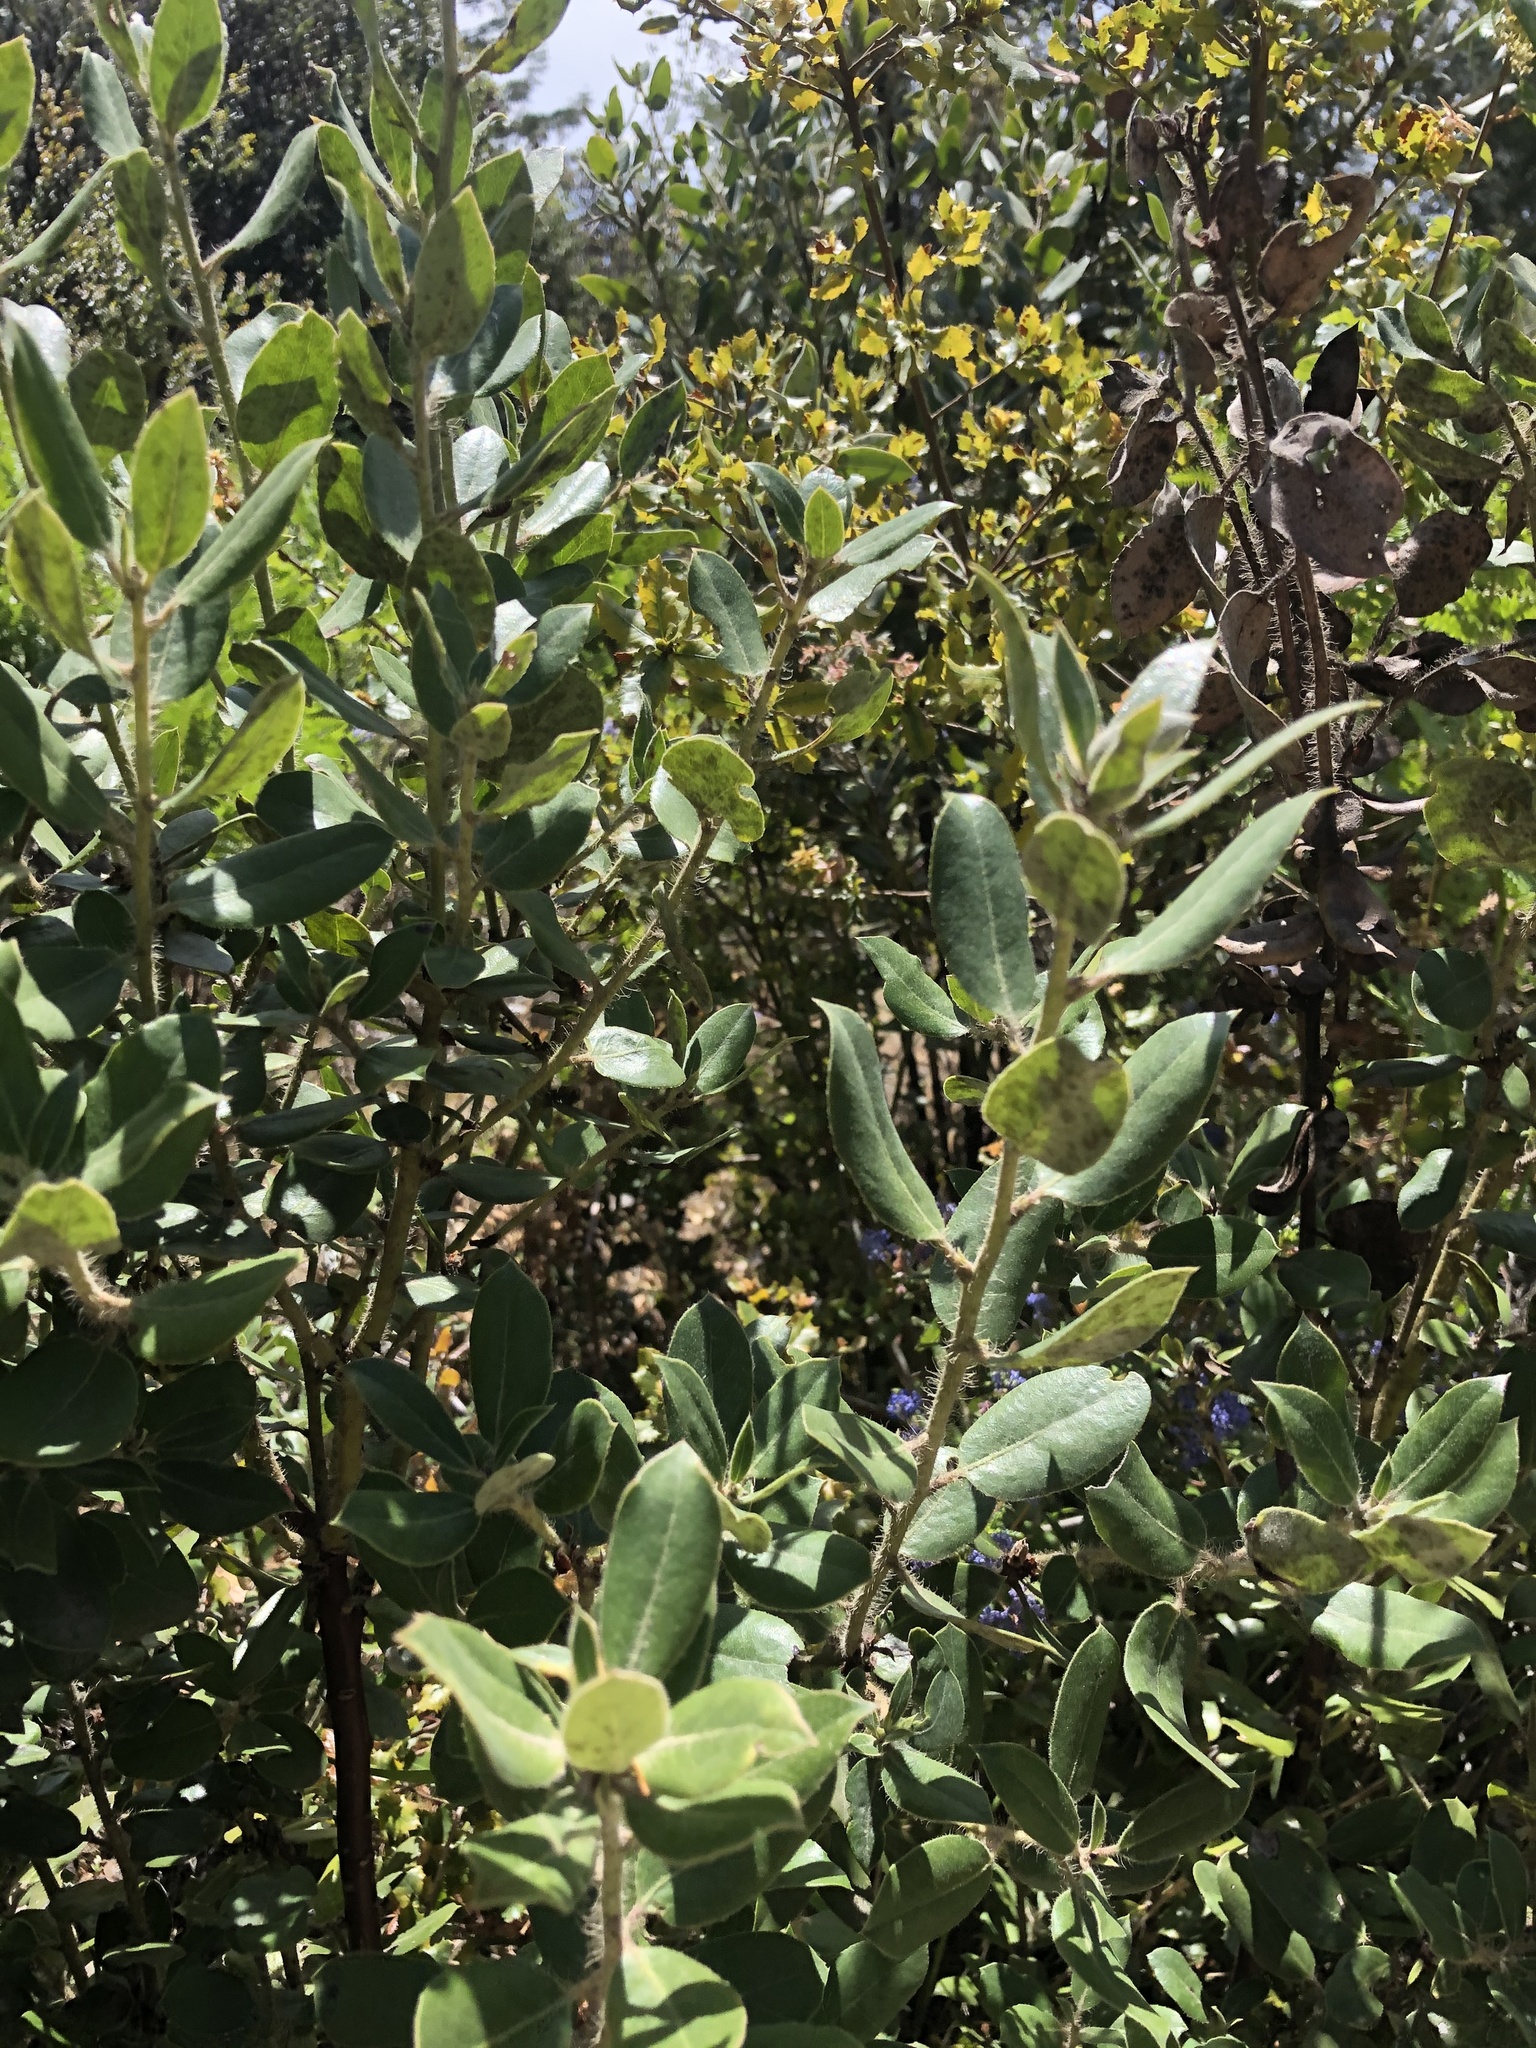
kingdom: Plantae
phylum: Tracheophyta
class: Magnoliopsida
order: Ericales
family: Ericaceae
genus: Arctostaphylos
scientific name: Arctostaphylos crustacea
